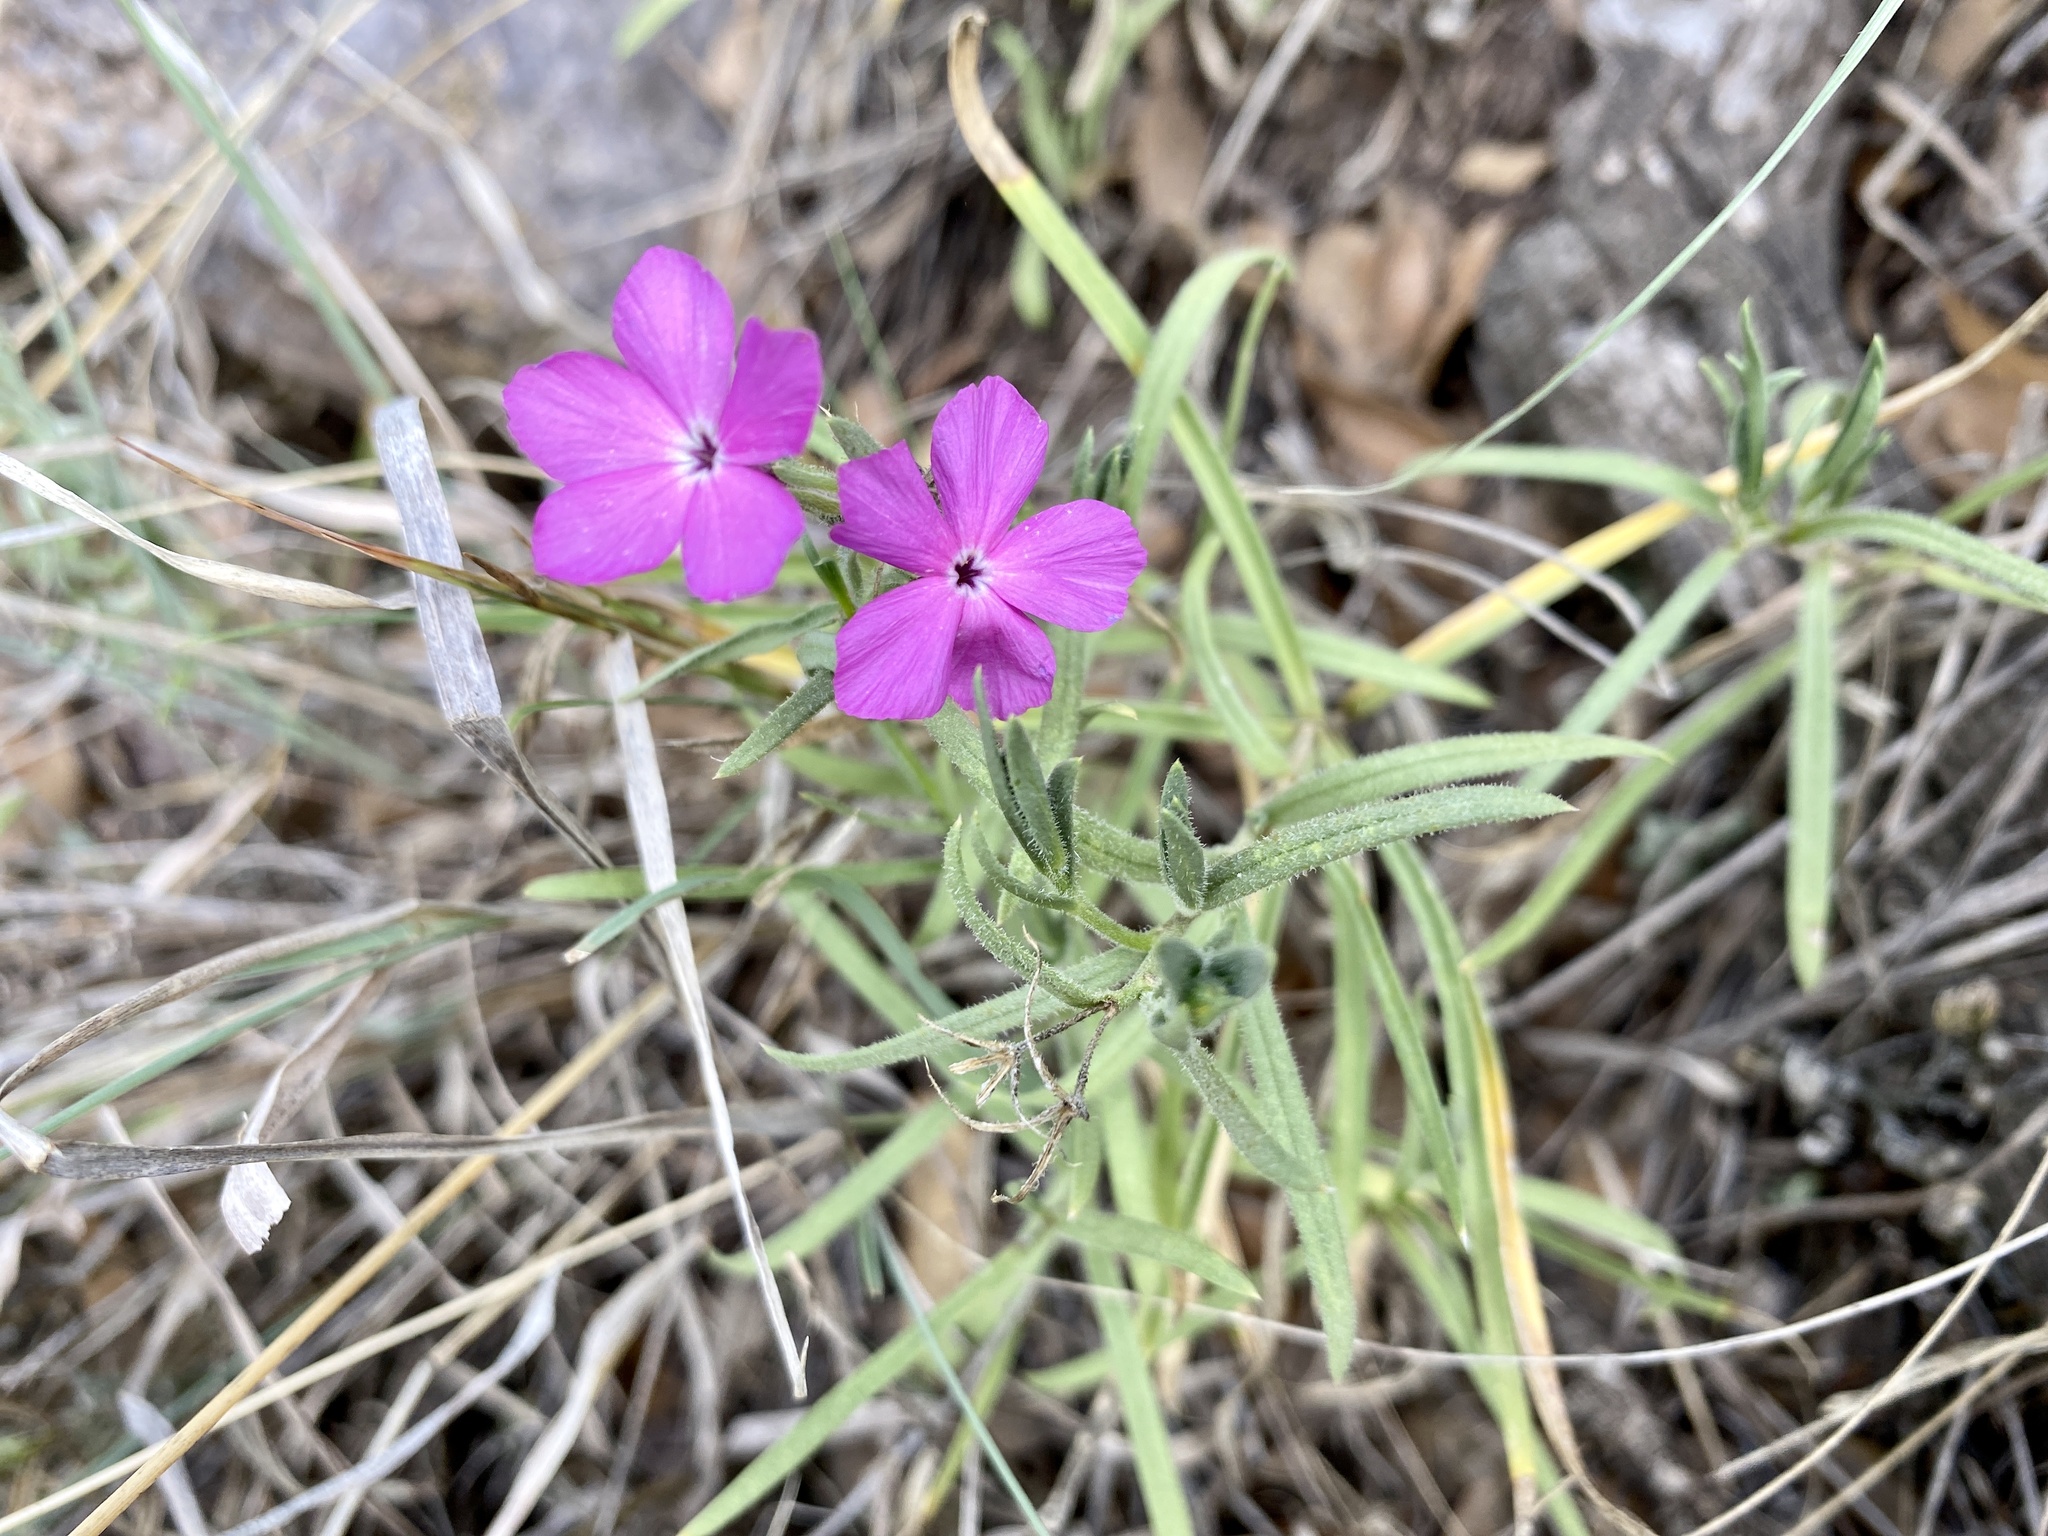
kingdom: Plantae
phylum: Tracheophyta
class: Magnoliopsida
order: Ericales
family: Polemoniaceae
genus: Phlox
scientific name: Phlox nana
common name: Santa fe phlox
